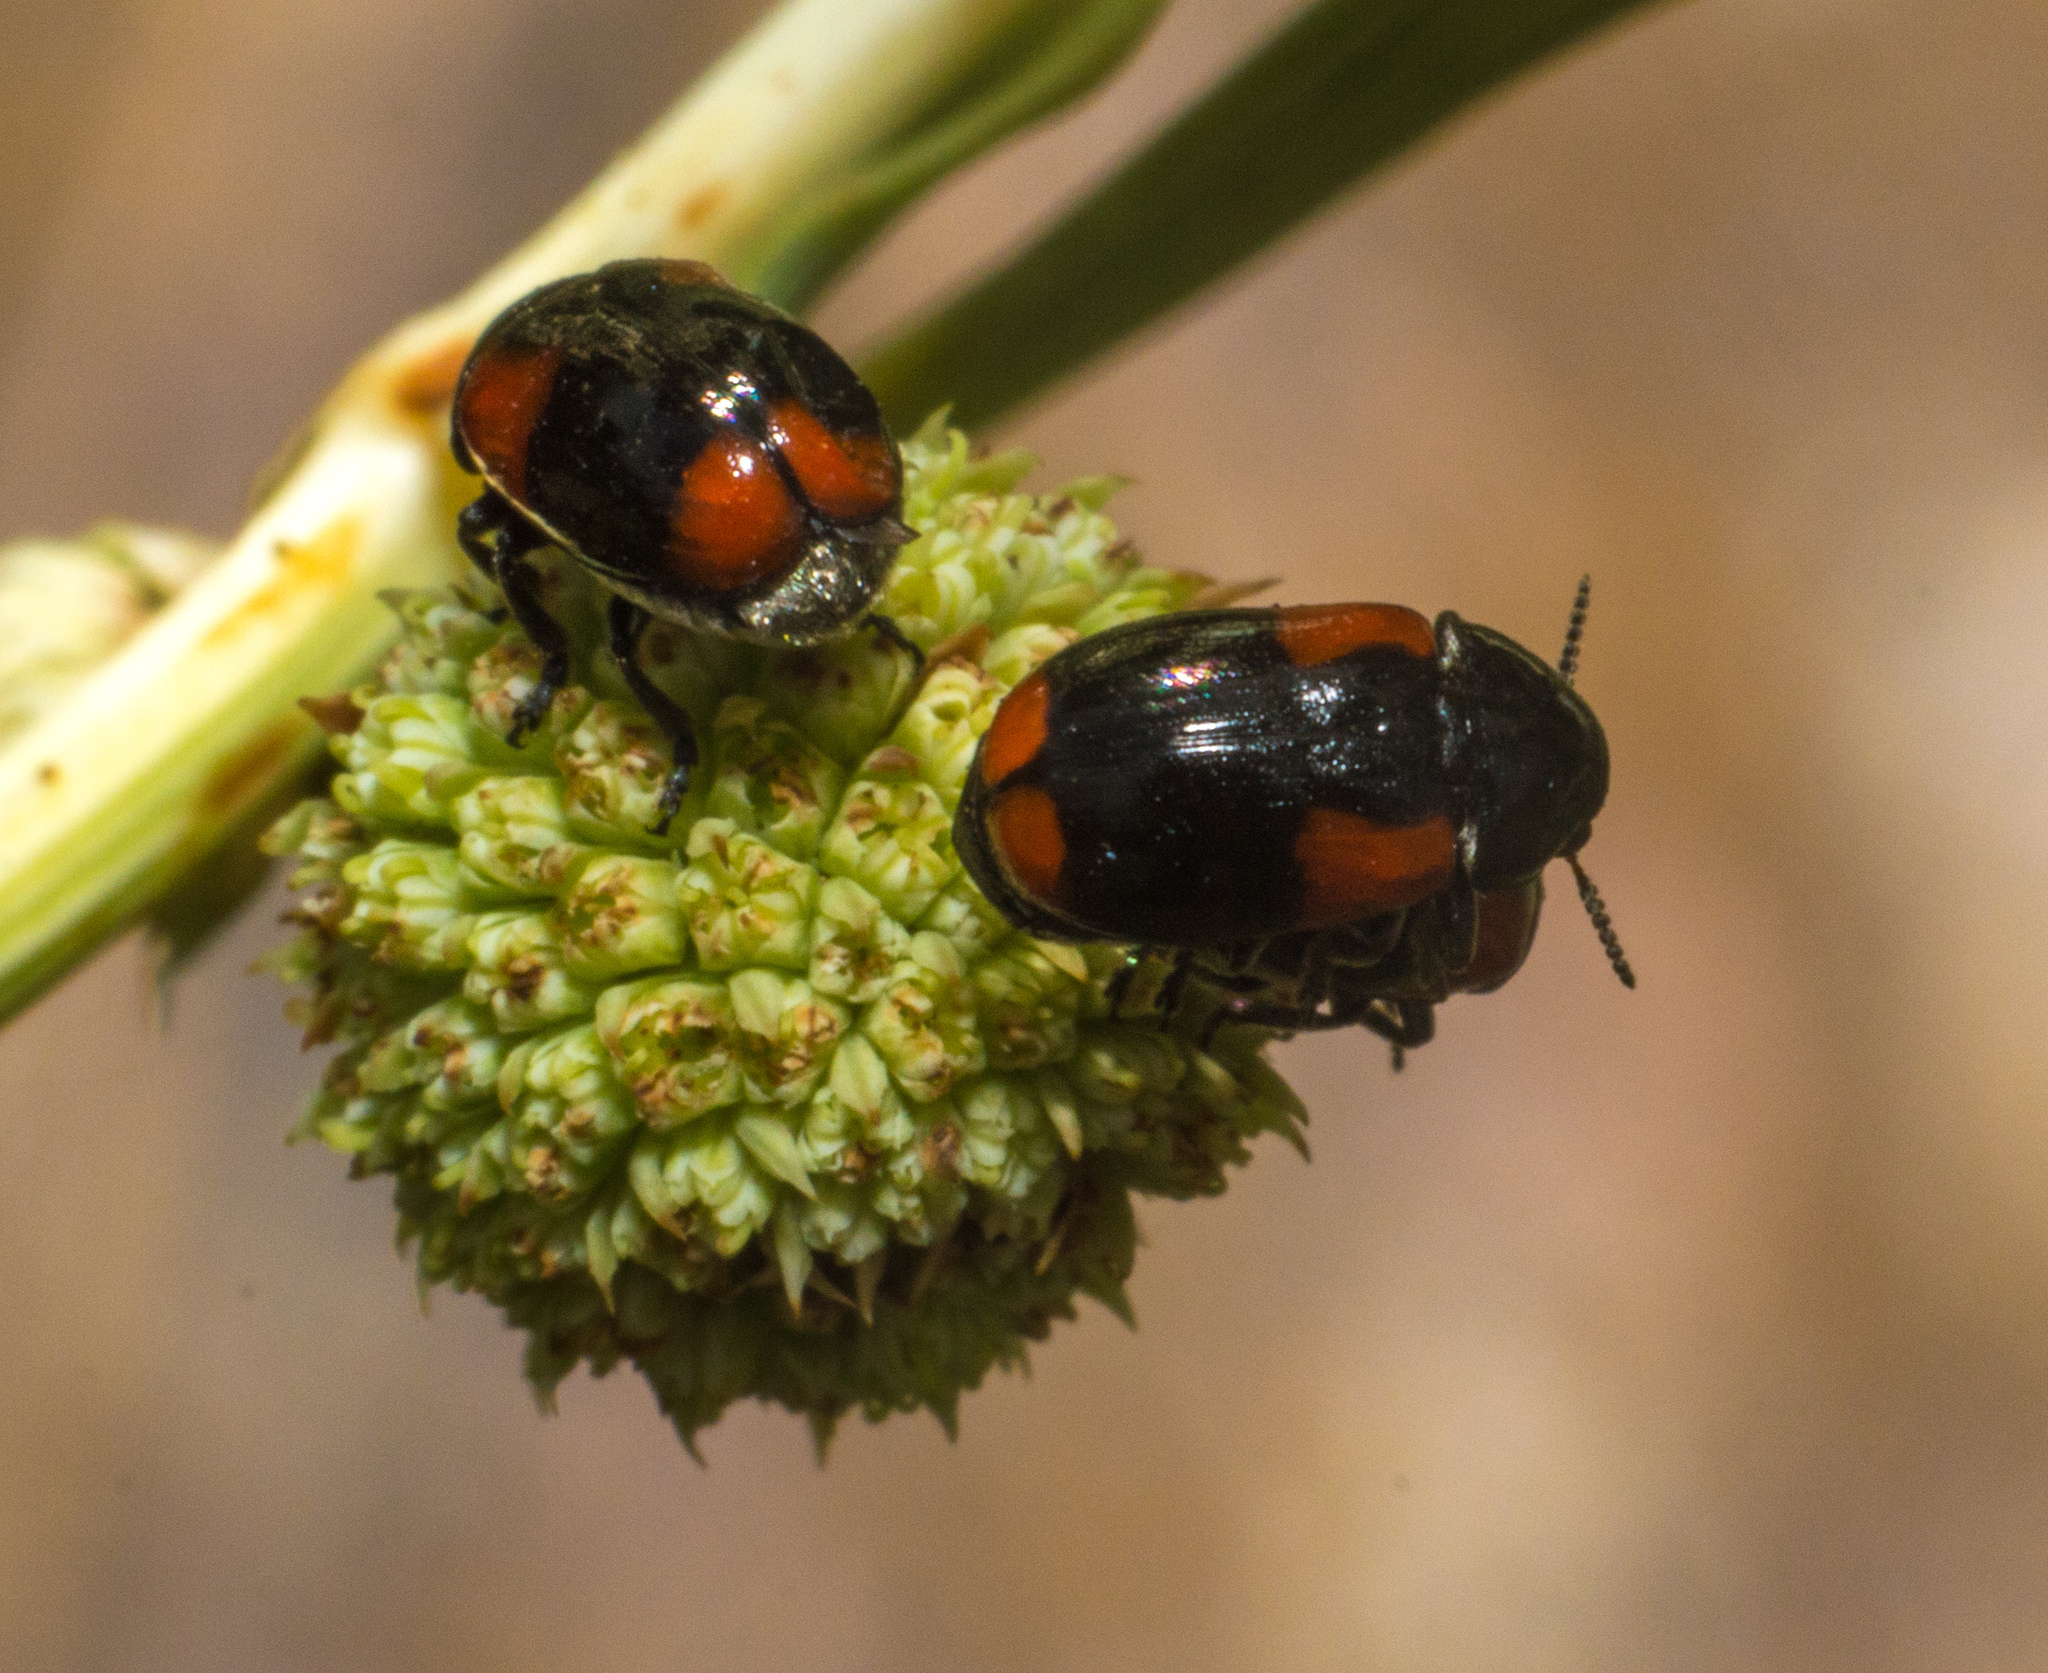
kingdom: Animalia
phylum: Arthropoda
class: Insecta
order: Coleoptera
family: Chrysomelidae
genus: Temnodachrys
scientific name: Temnodachrys
